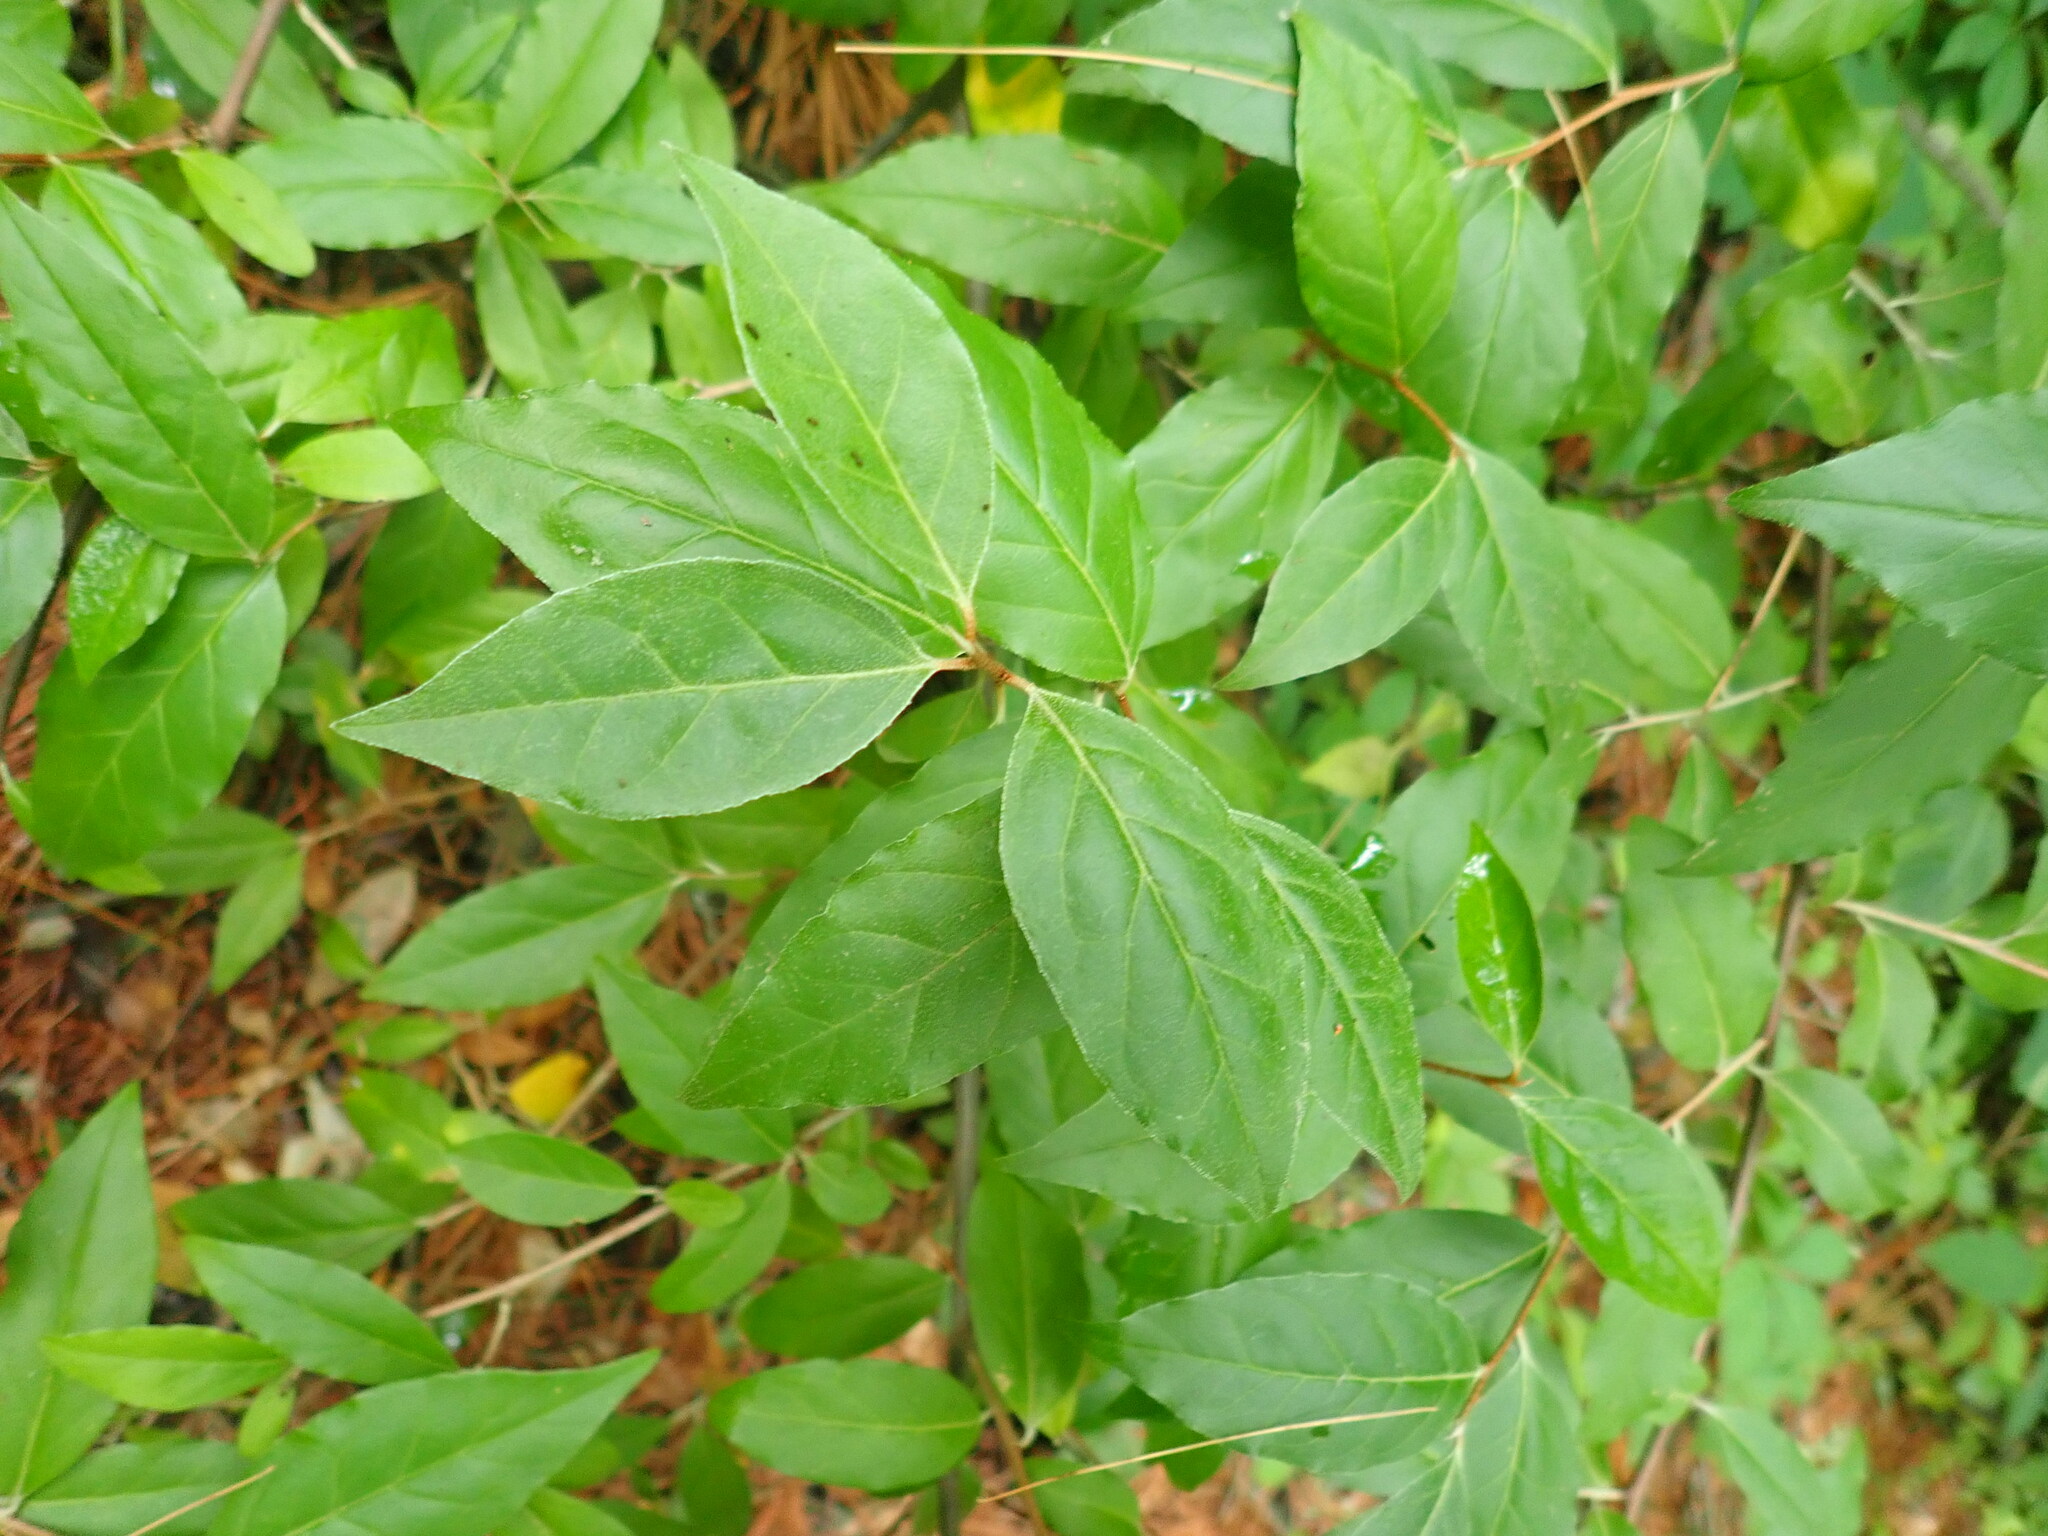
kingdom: Plantae
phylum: Tracheophyta
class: Magnoliopsida
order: Rosales
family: Elaeagnaceae
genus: Elaeagnus
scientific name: Elaeagnus umbellata
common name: Autumn olive
